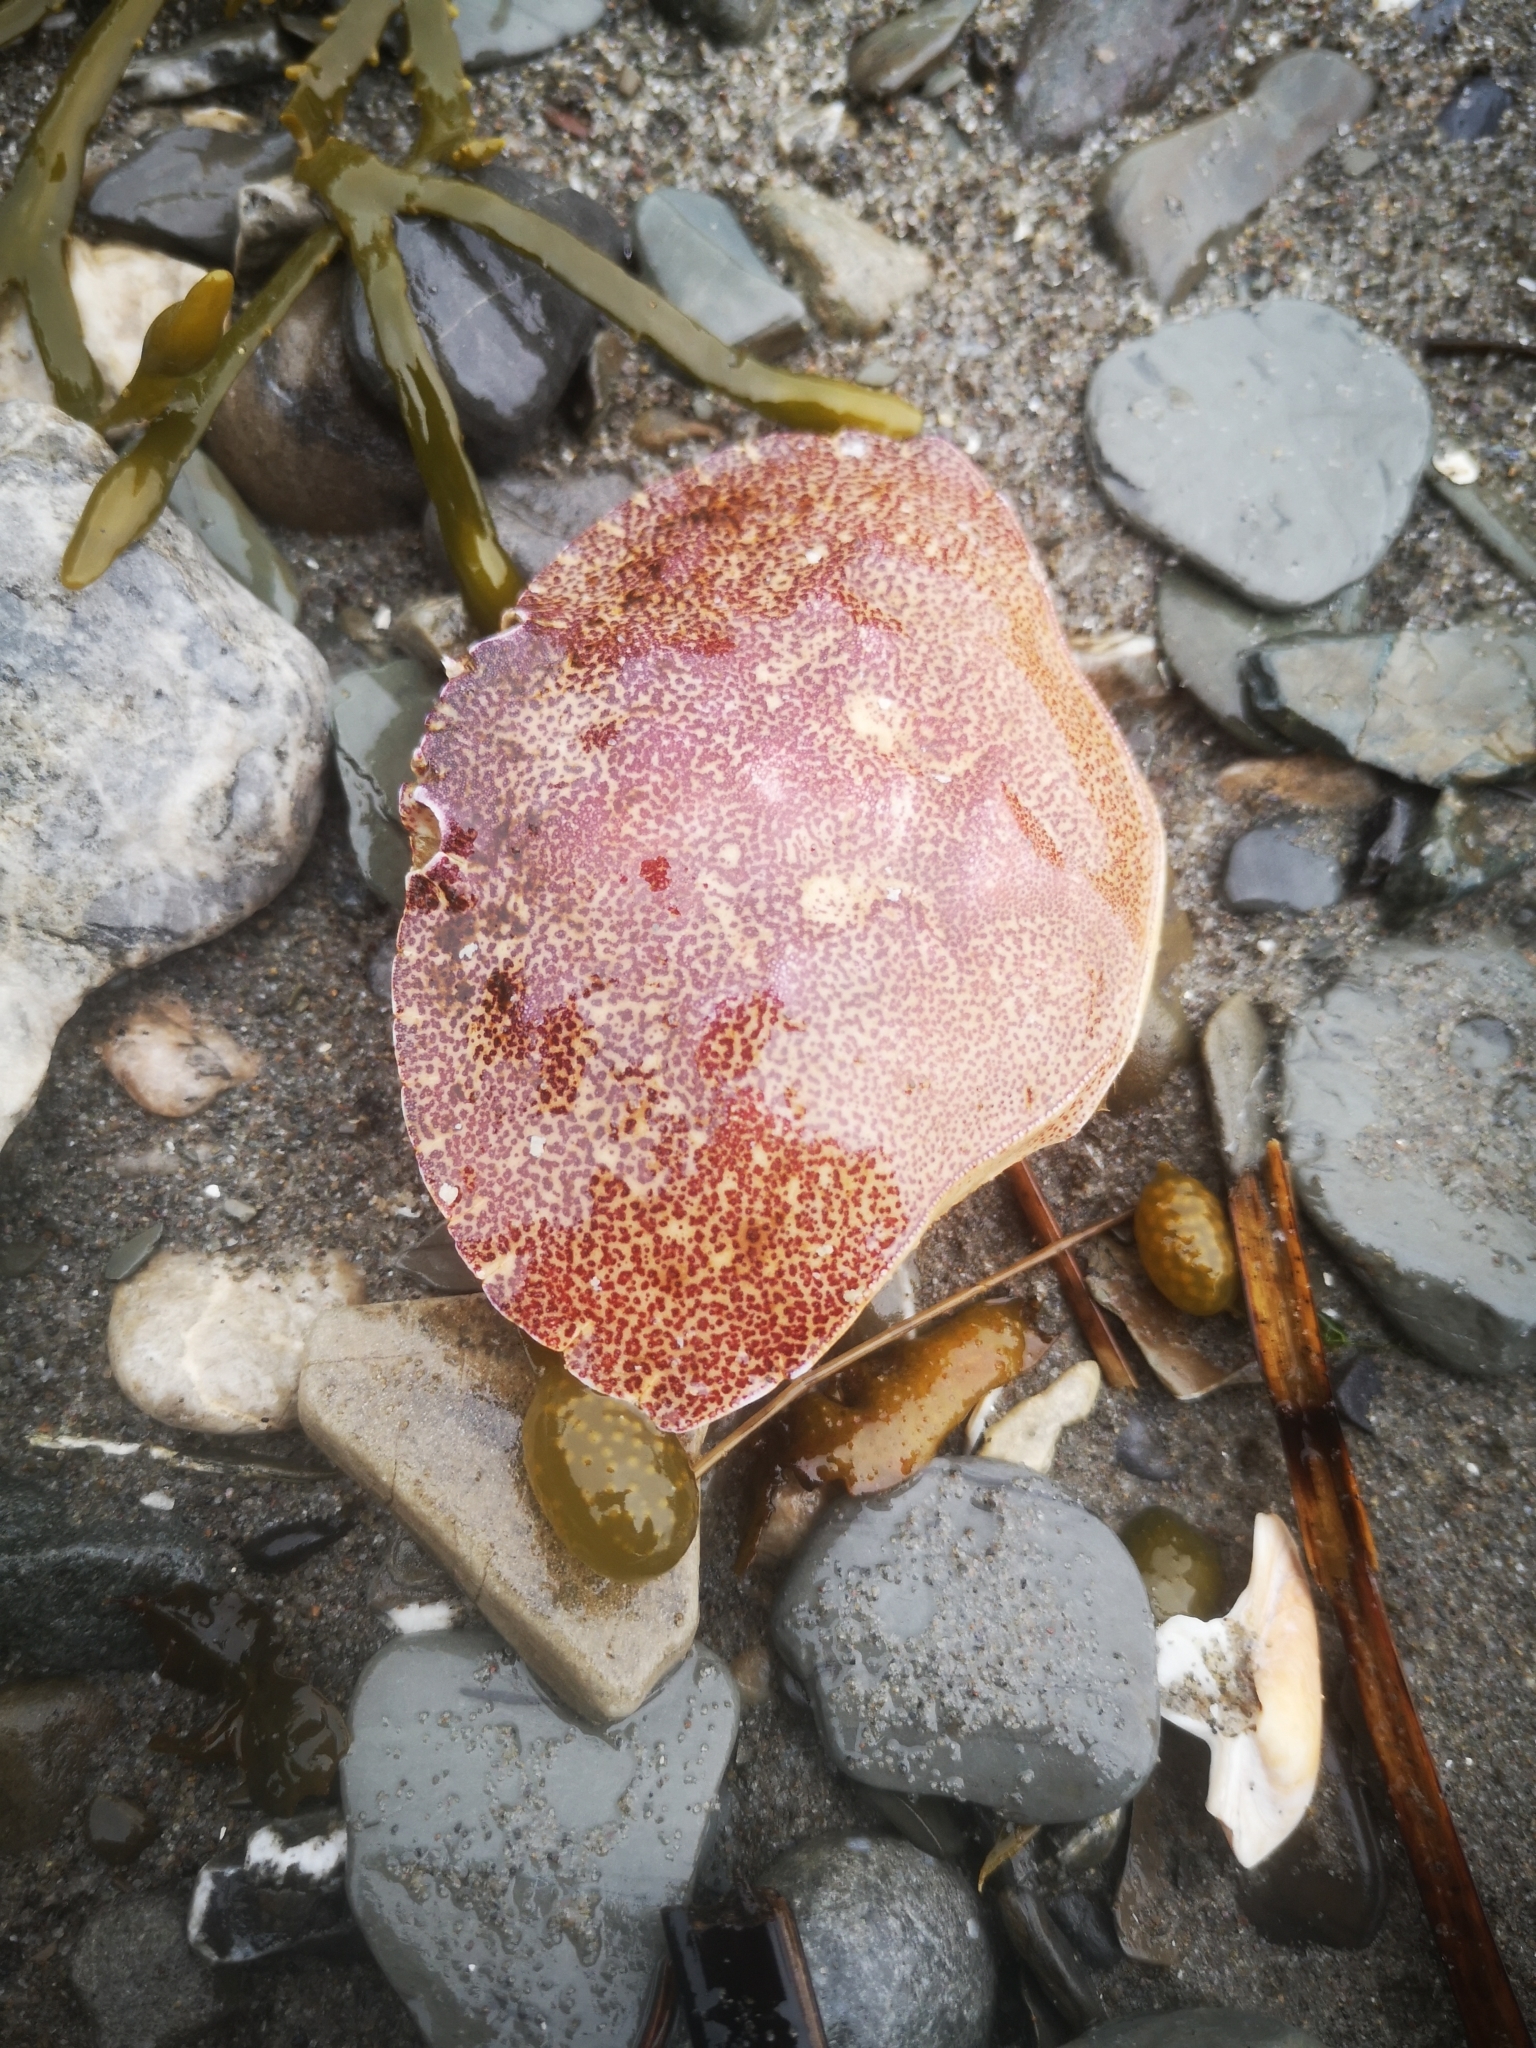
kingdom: Animalia
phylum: Arthropoda
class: Malacostraca
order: Decapoda
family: Cancridae
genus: Cancer
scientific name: Cancer irroratus
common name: Atlantic rock crab
